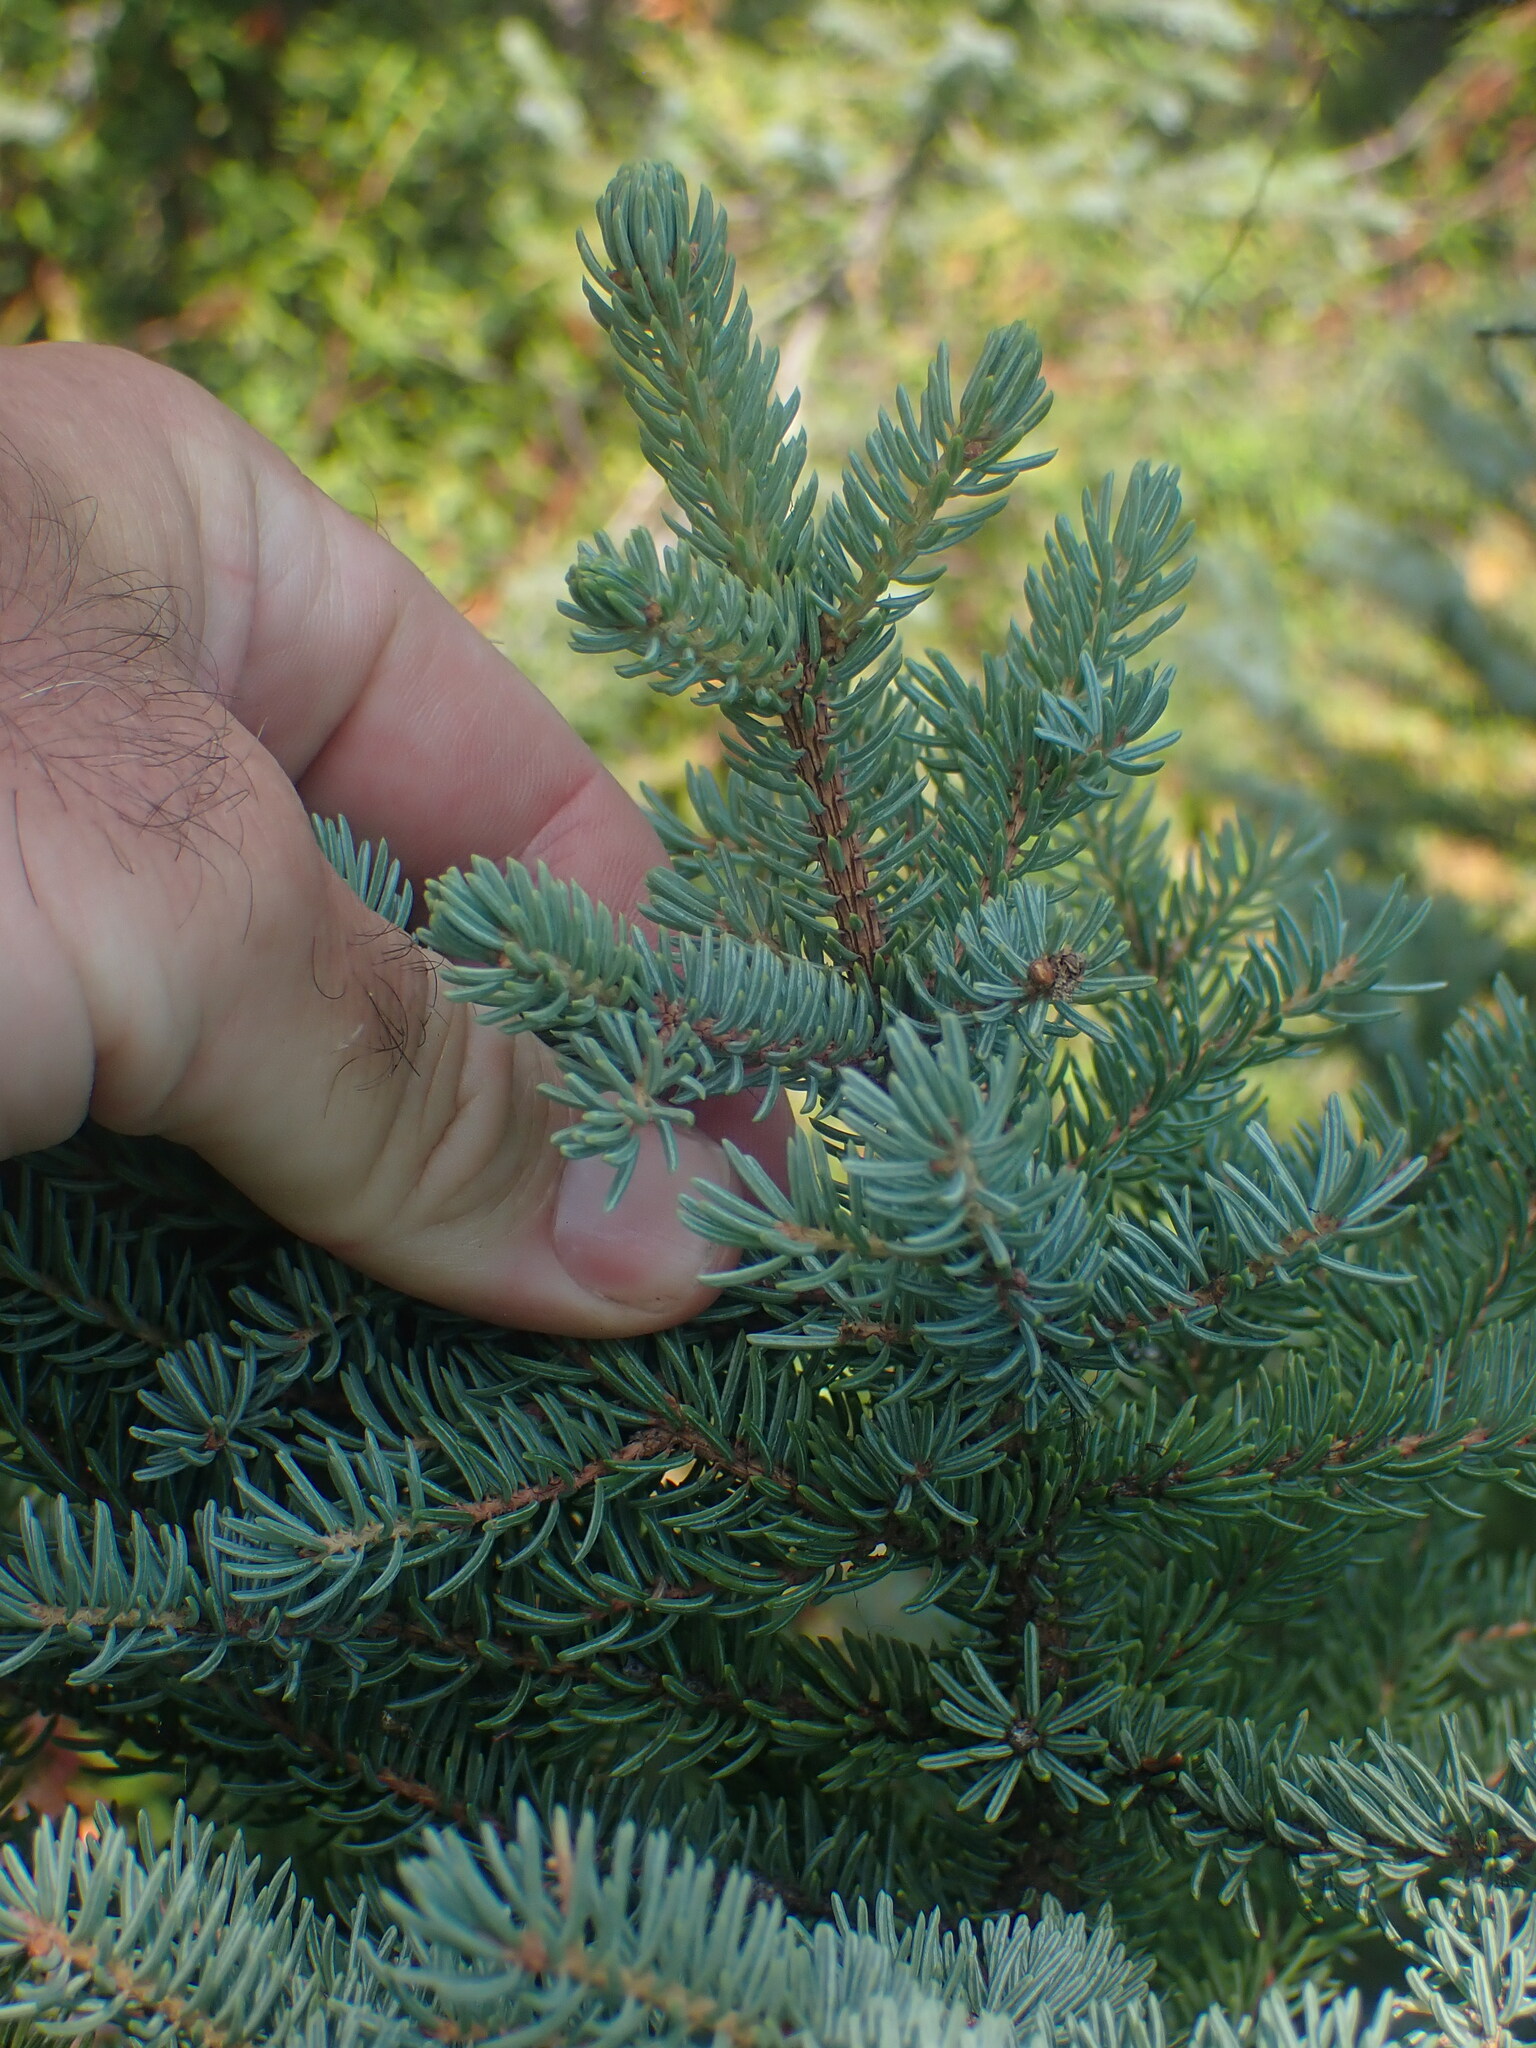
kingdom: Plantae
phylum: Tracheophyta
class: Pinopsida
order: Pinales
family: Pinaceae
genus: Picea
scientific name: Picea mariana
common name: Black spruce
